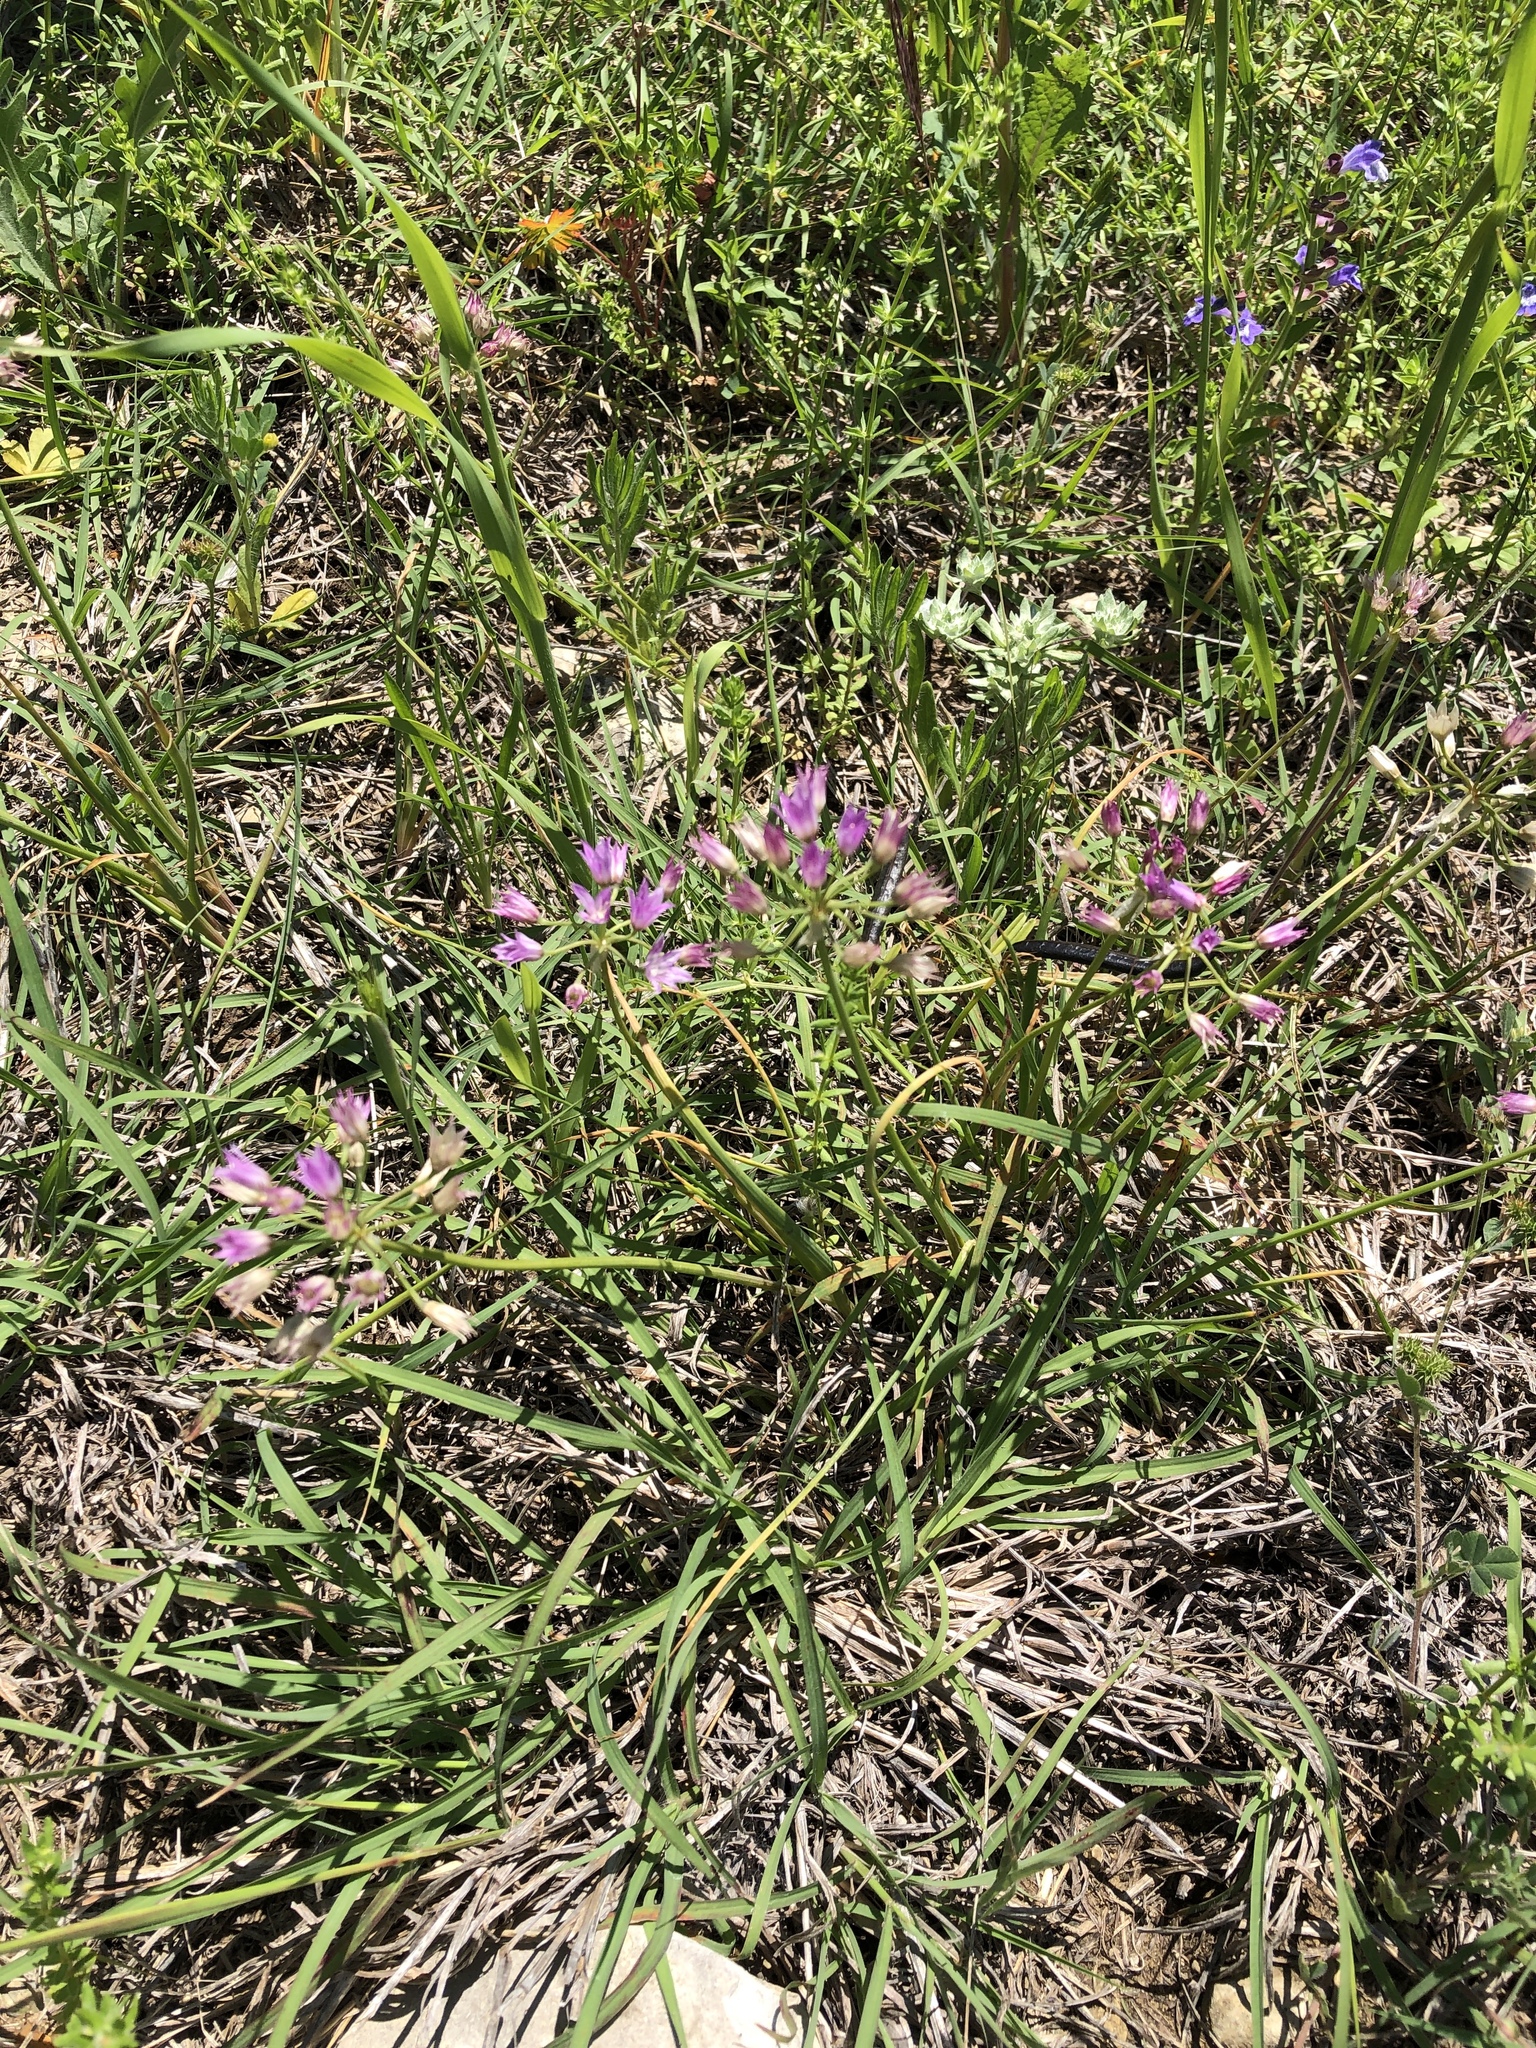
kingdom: Plantae
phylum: Tracheophyta
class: Liliopsida
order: Asparagales
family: Amaryllidaceae
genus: Allium
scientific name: Allium drummondii
